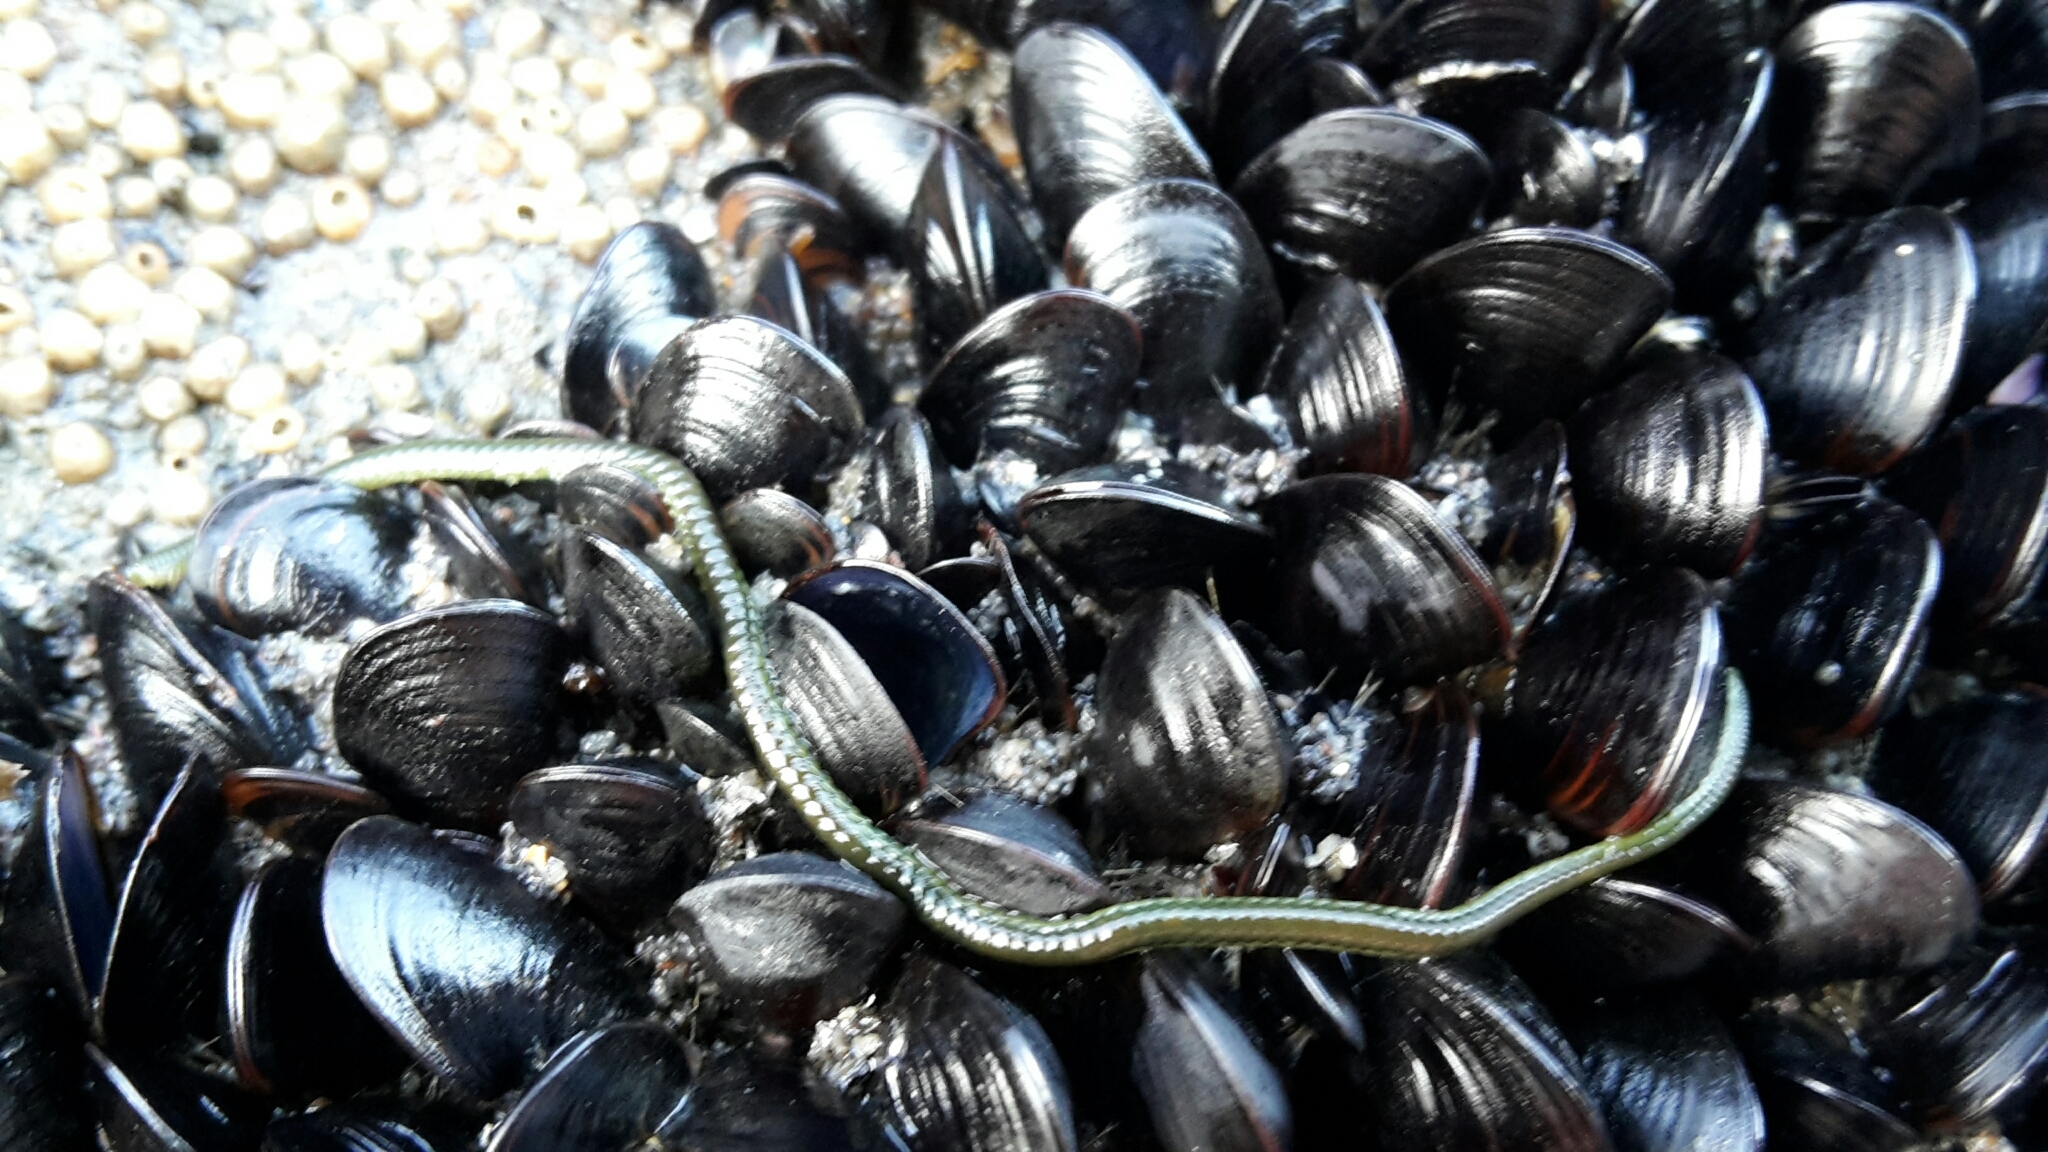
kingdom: Animalia
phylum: Annelida
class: Polychaeta
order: Phyllodocida
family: Phyllodocidae
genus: Eulalia
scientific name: Eulalia microphylla
